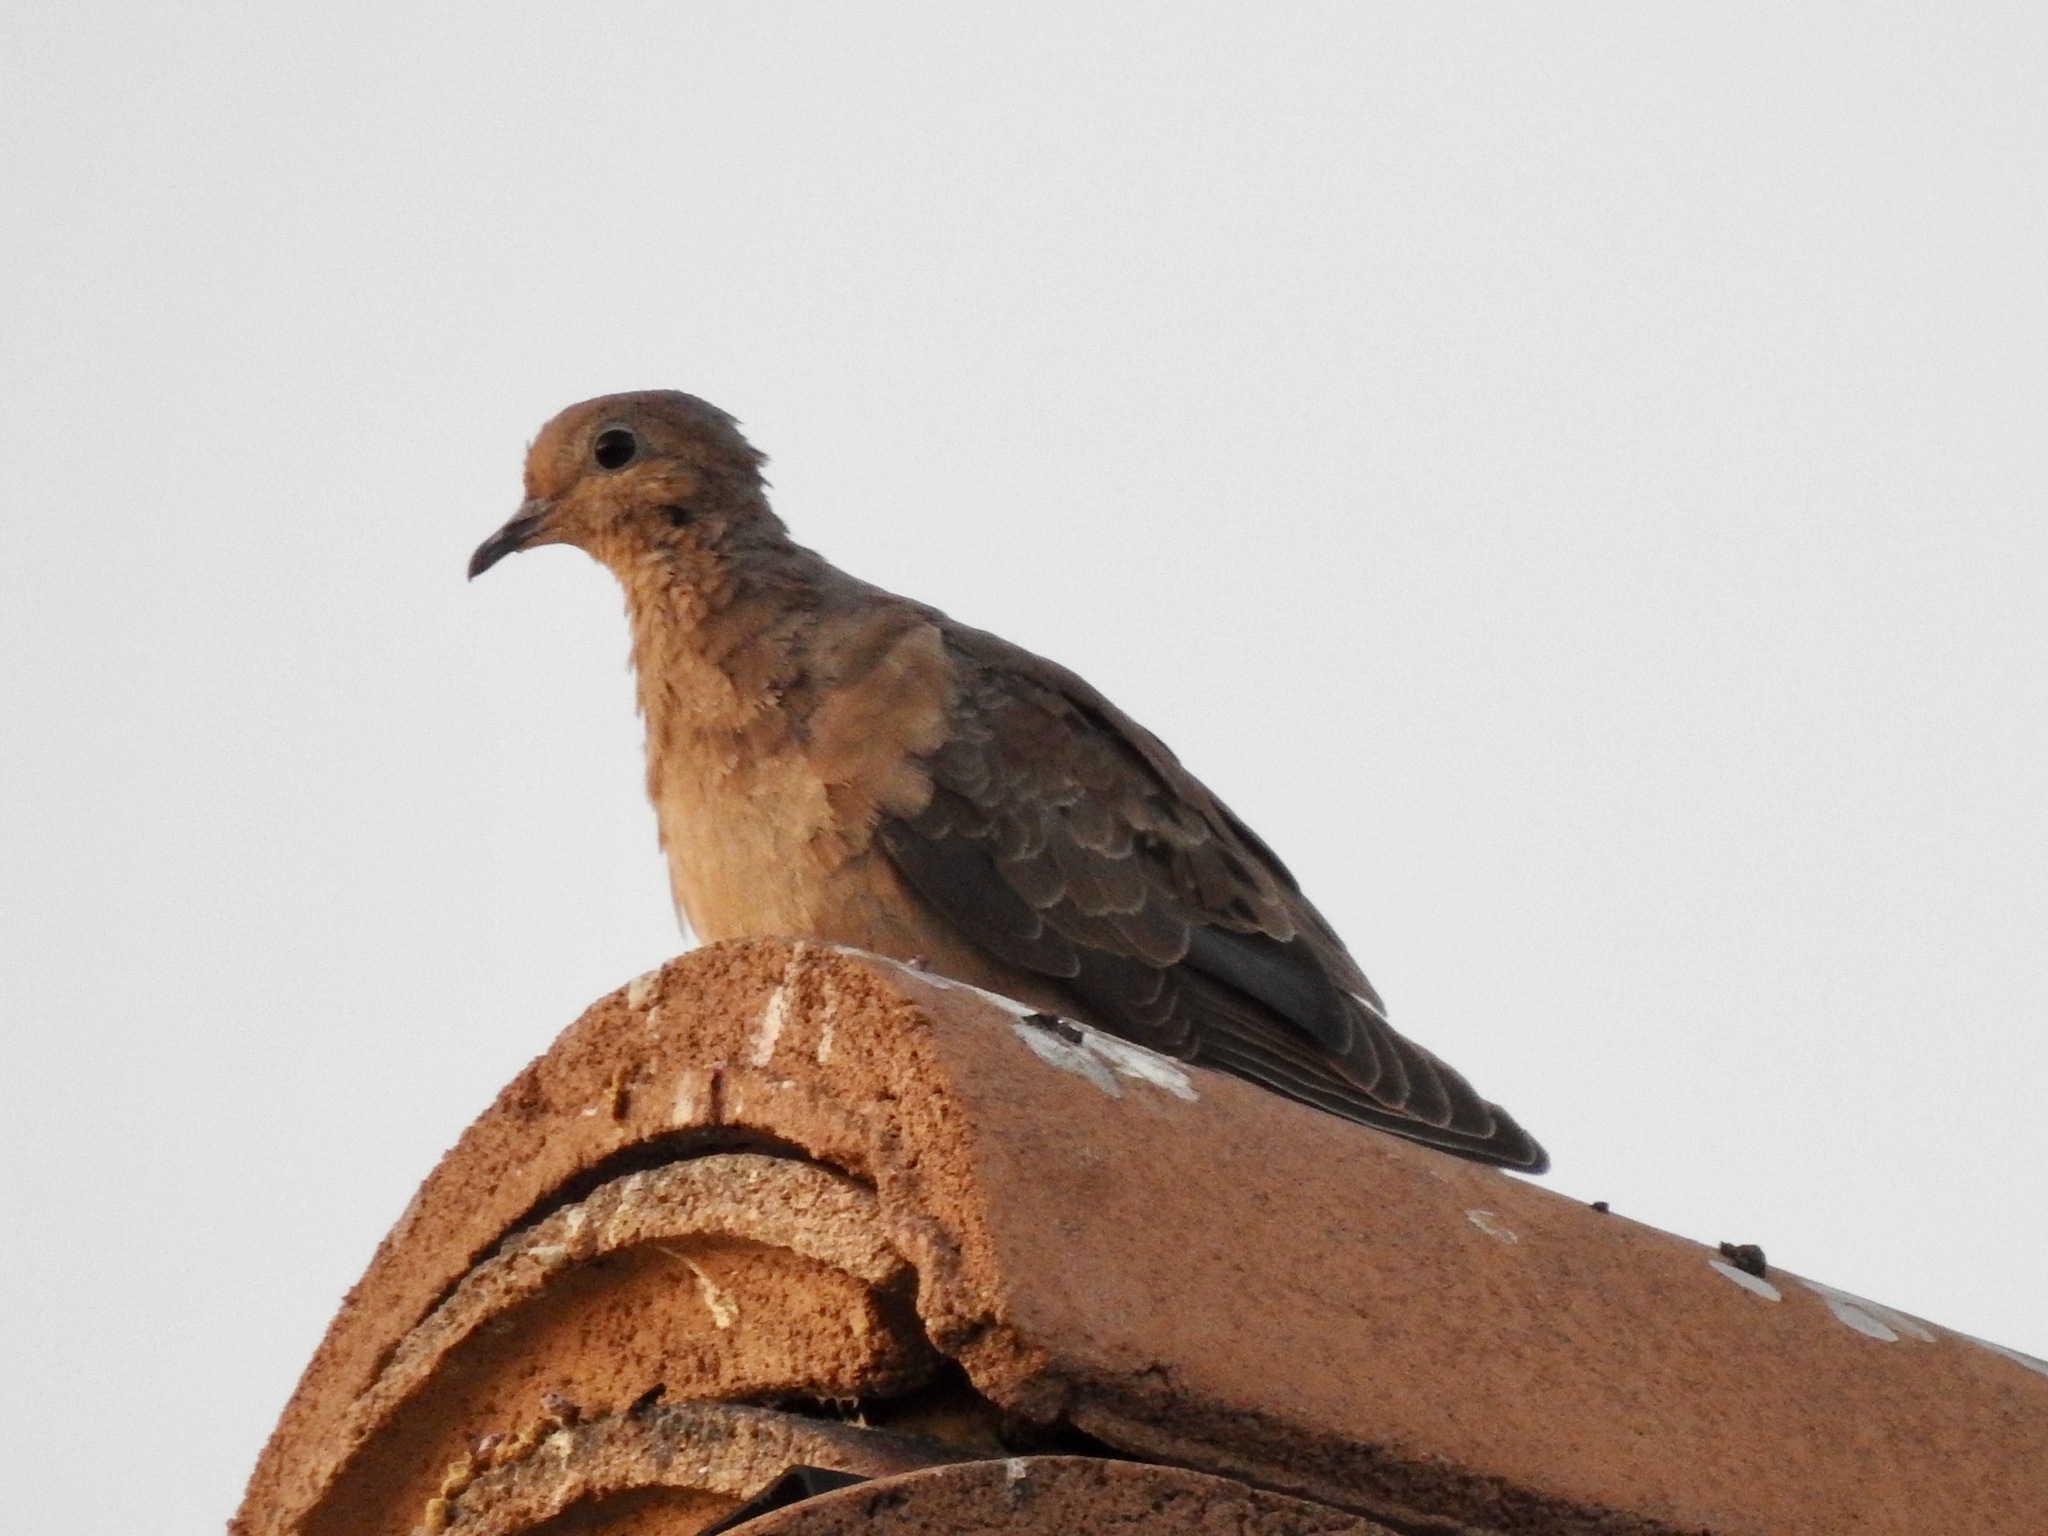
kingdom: Animalia
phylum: Chordata
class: Aves
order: Columbiformes
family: Columbidae
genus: Zenaida
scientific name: Zenaida macroura
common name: Mourning dove
